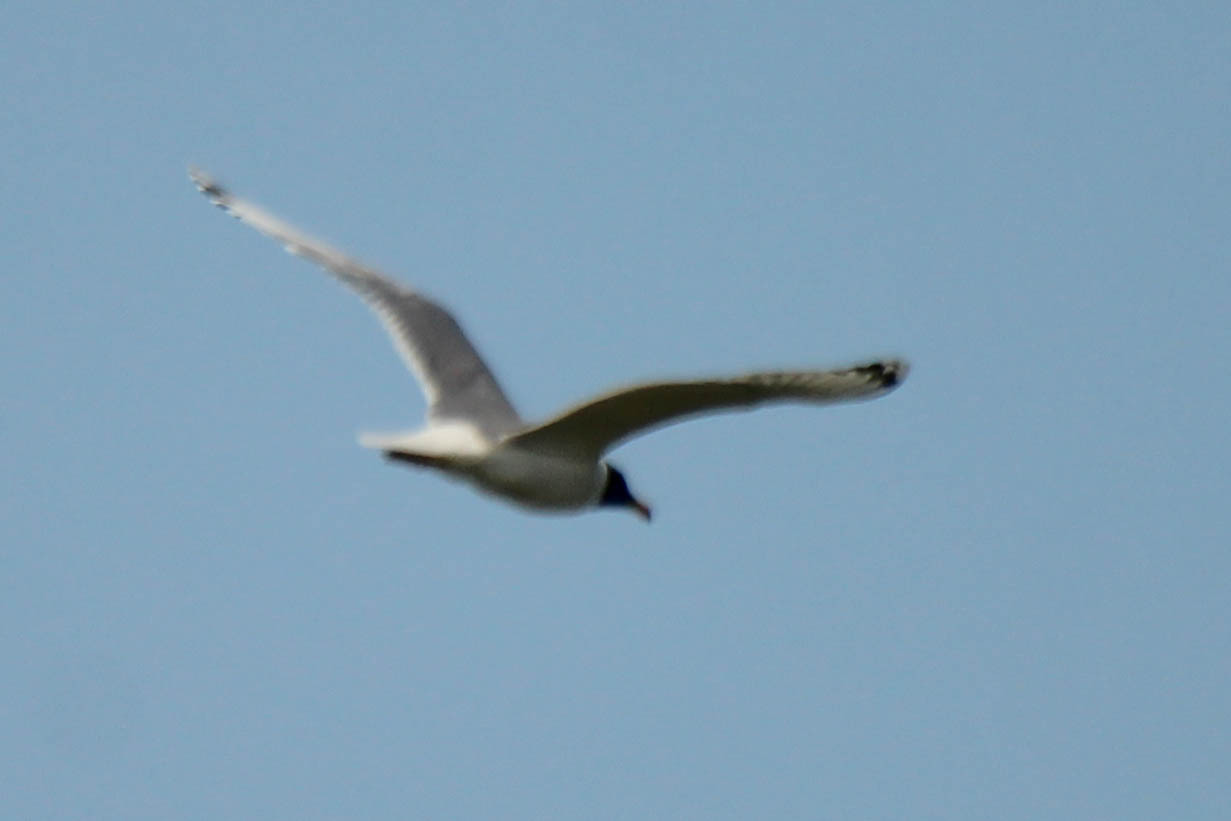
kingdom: Animalia
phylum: Chordata
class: Aves
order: Charadriiformes
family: Laridae
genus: Ichthyaetus
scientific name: Ichthyaetus ichthyaetus
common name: Pallas's gull
